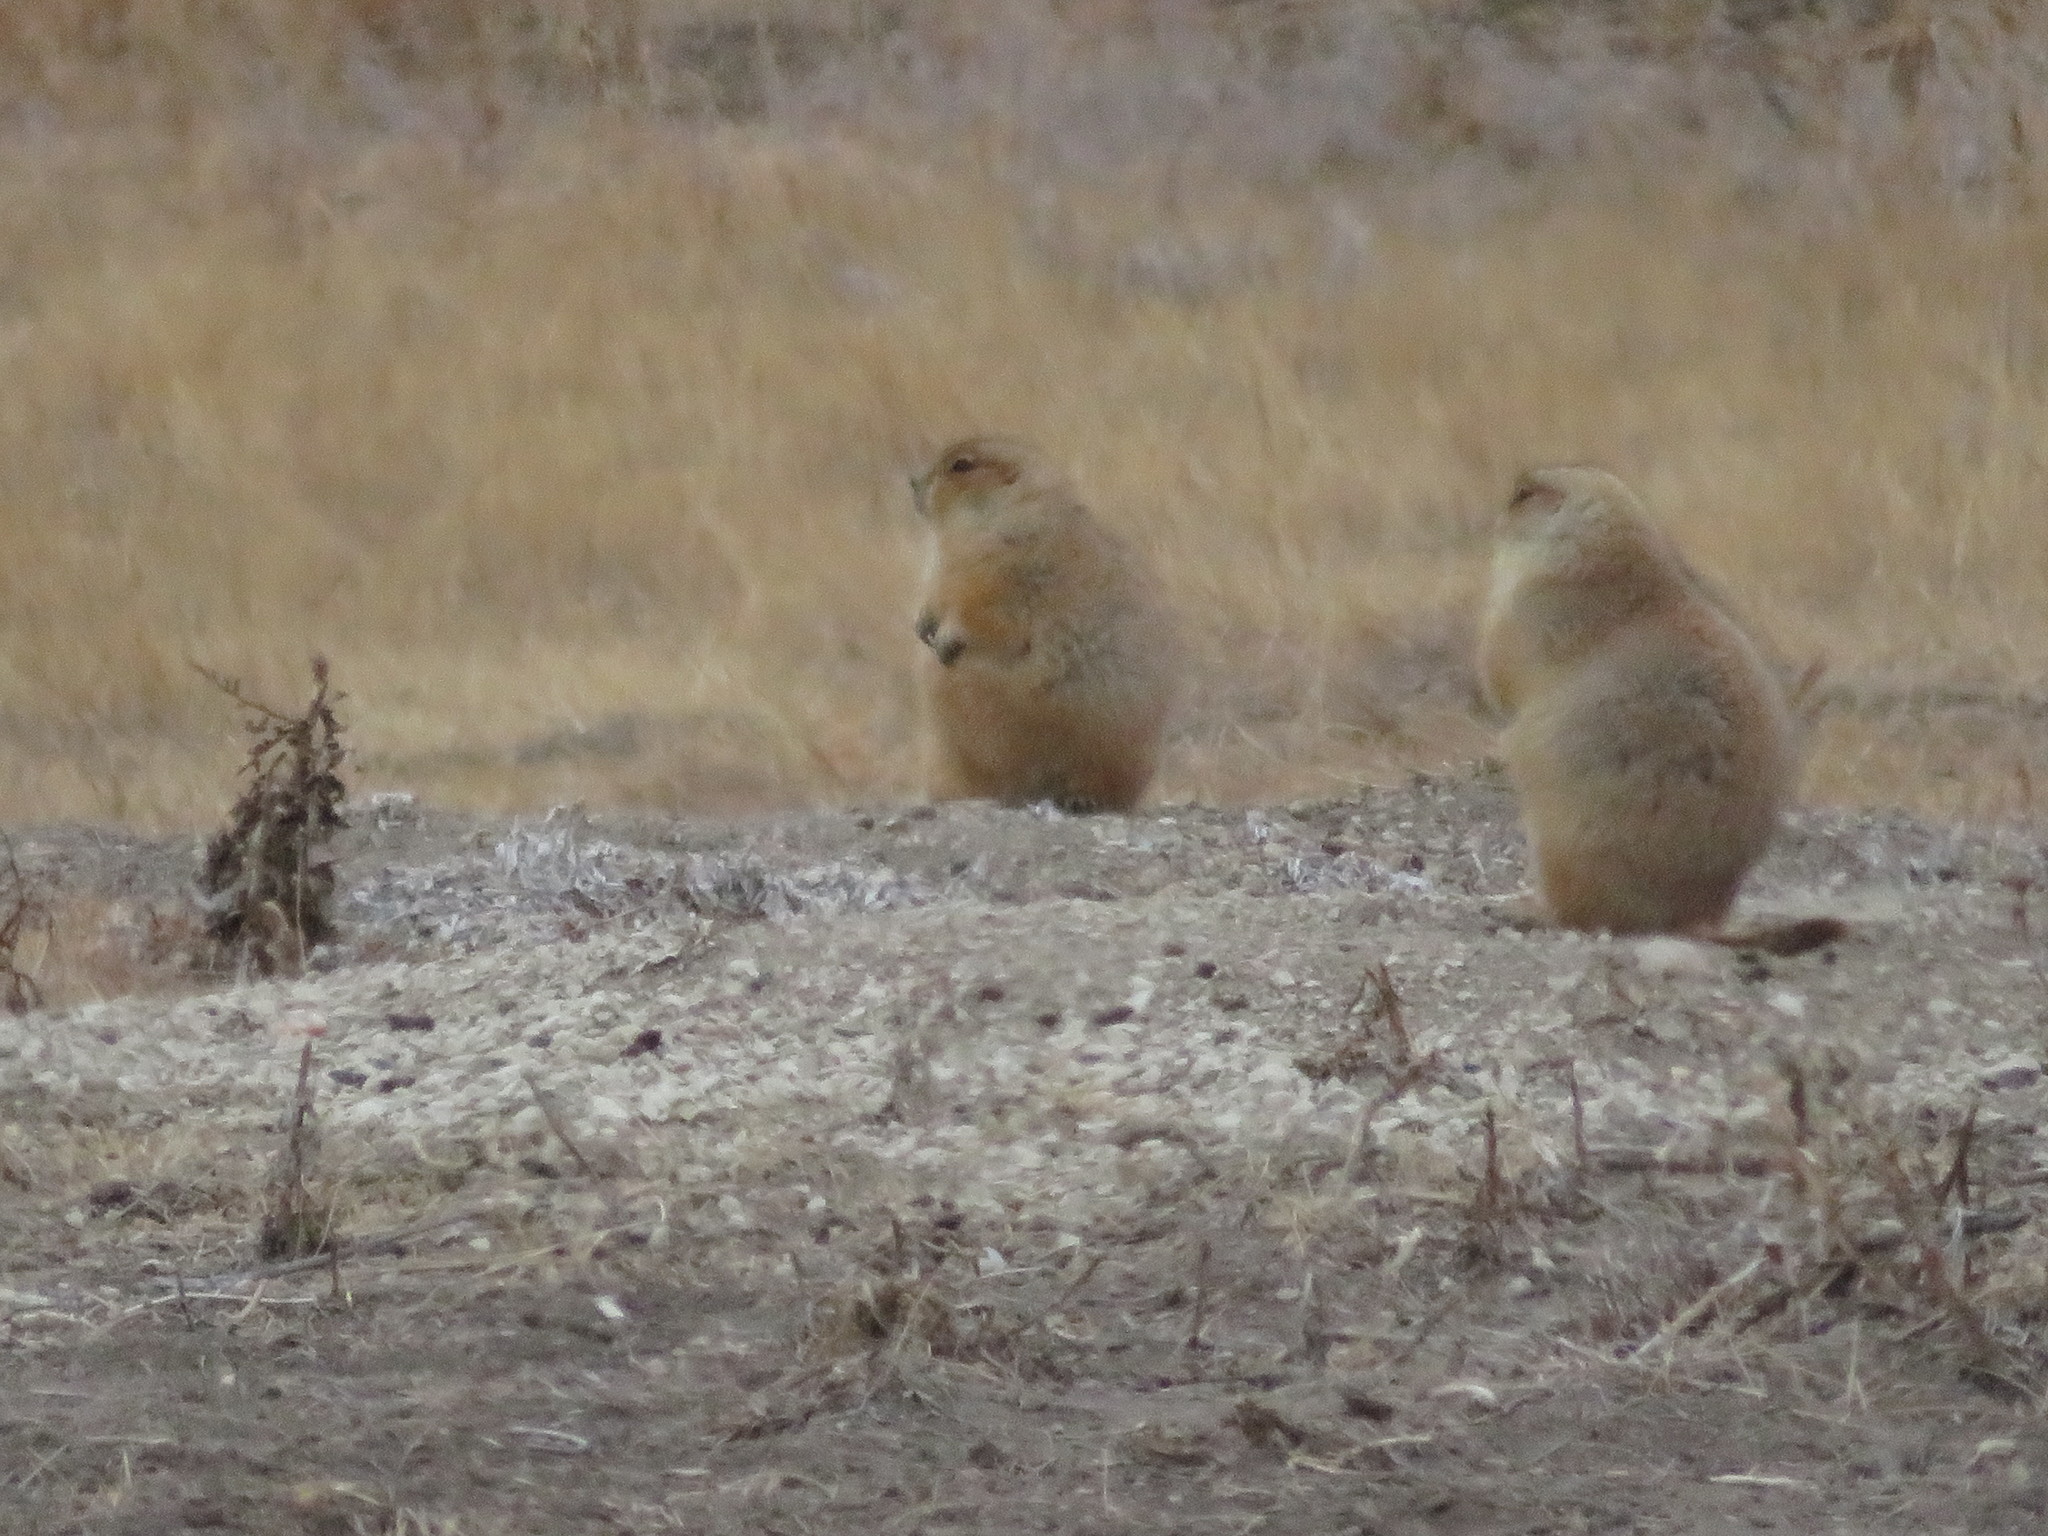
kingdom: Animalia
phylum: Chordata
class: Mammalia
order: Rodentia
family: Sciuridae
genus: Cynomys
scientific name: Cynomys ludovicianus
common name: Black-tailed prairie dog
